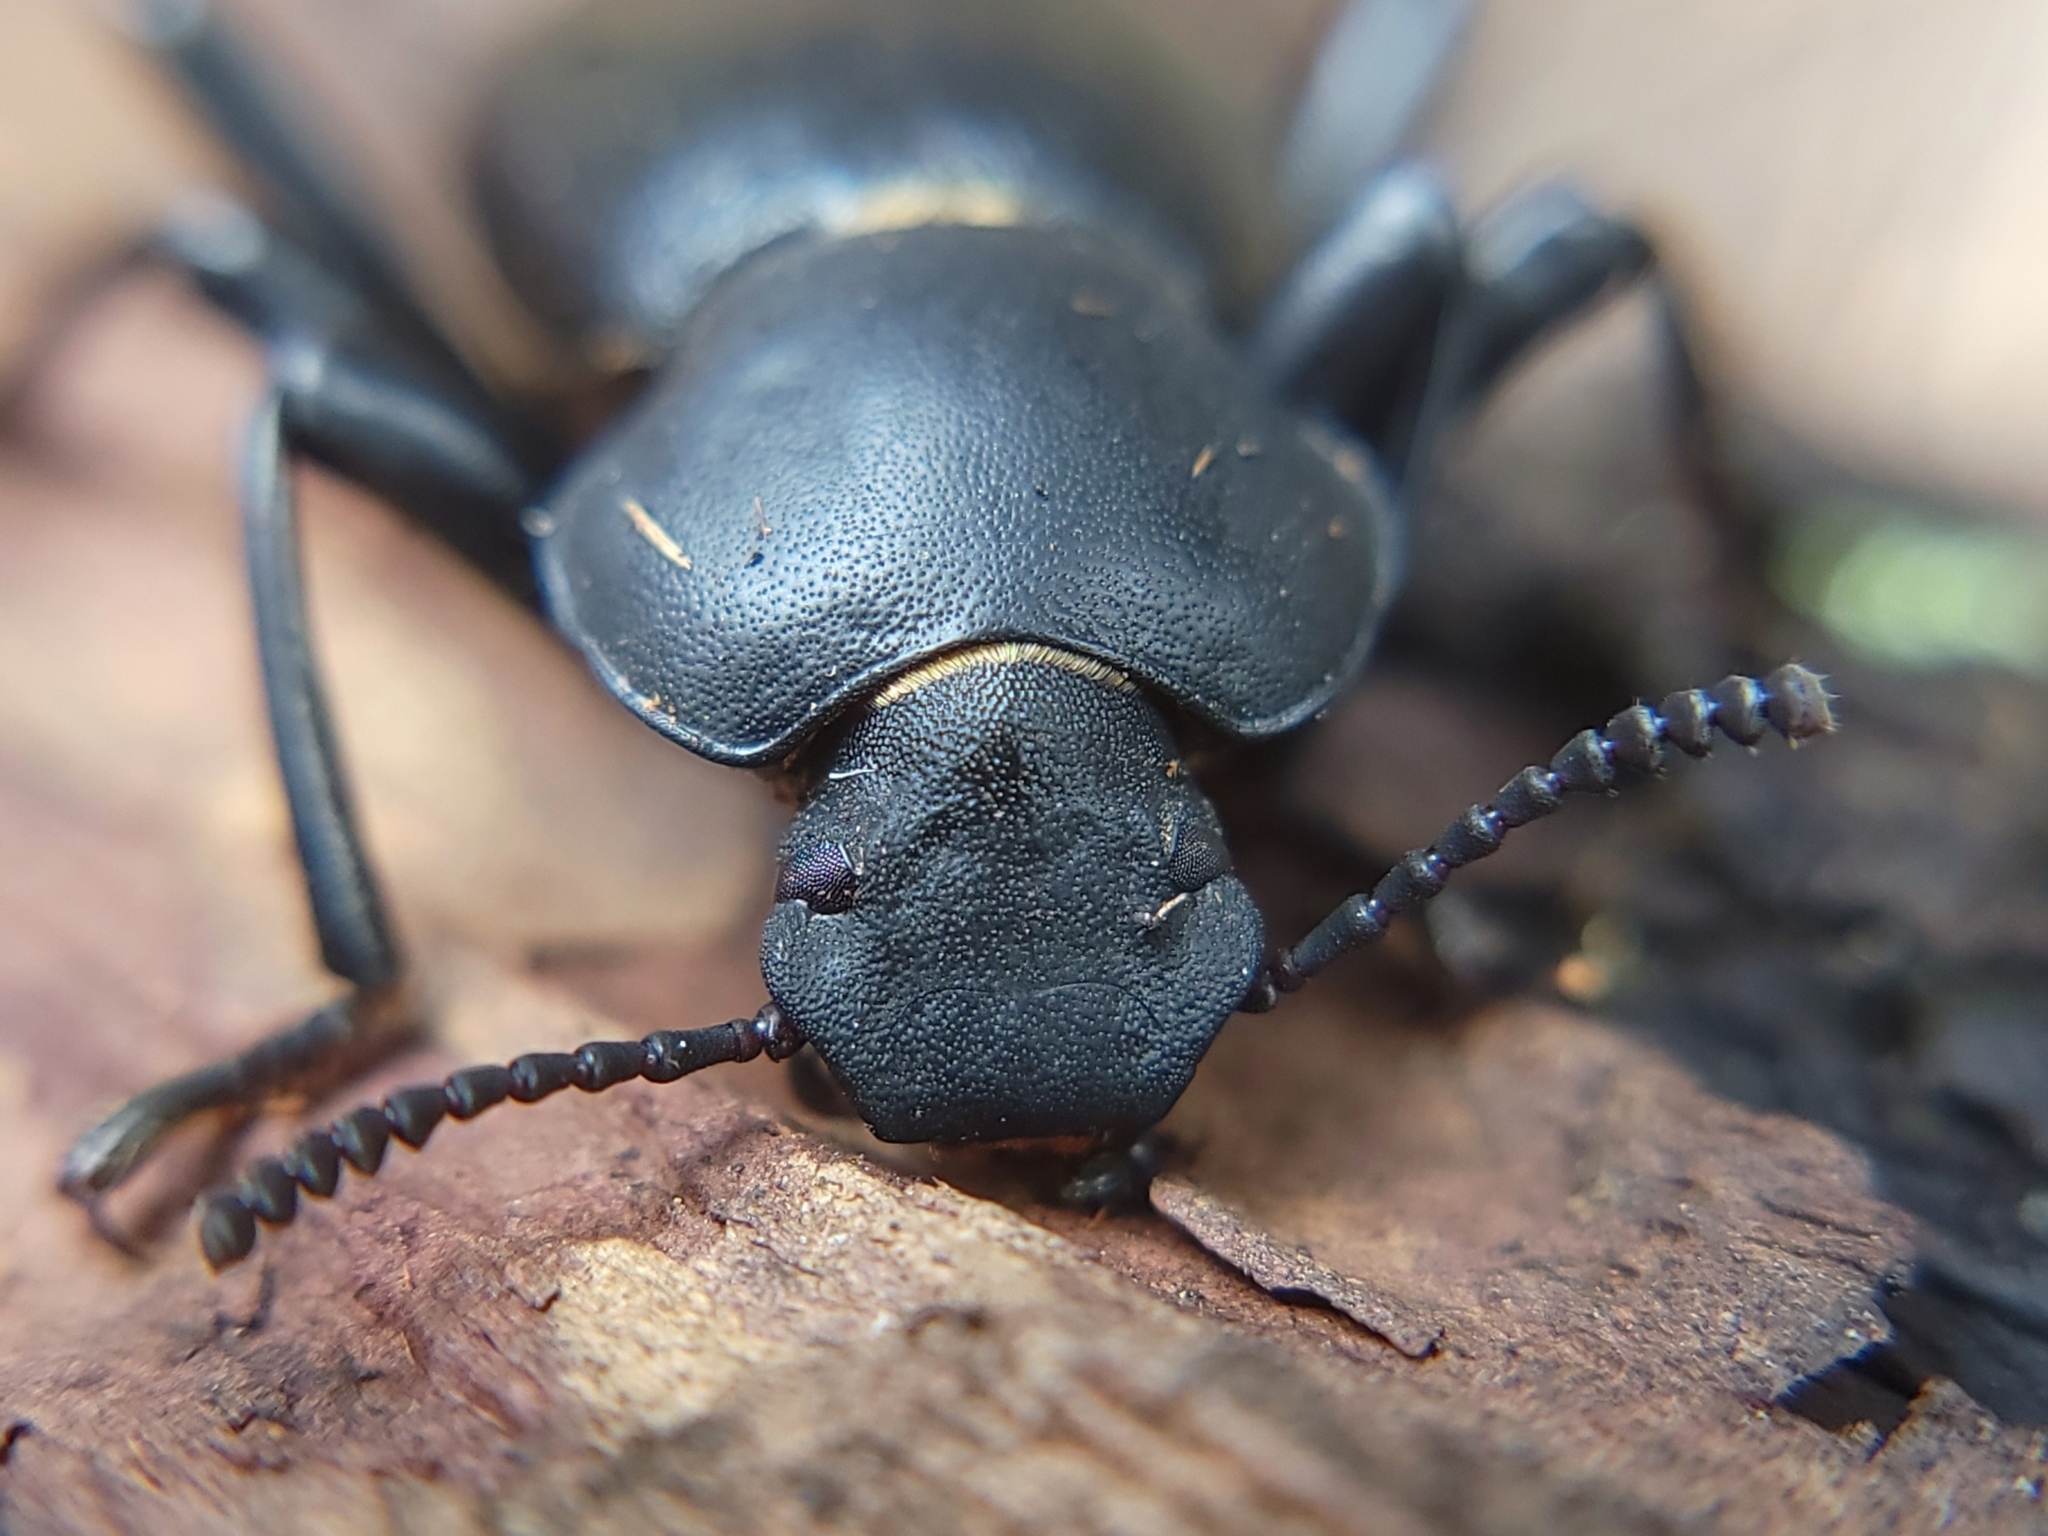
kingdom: Animalia
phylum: Arthropoda
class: Insecta
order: Coleoptera
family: Tenebrionidae
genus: Coelocnemis
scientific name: Coelocnemis dilaticollis
